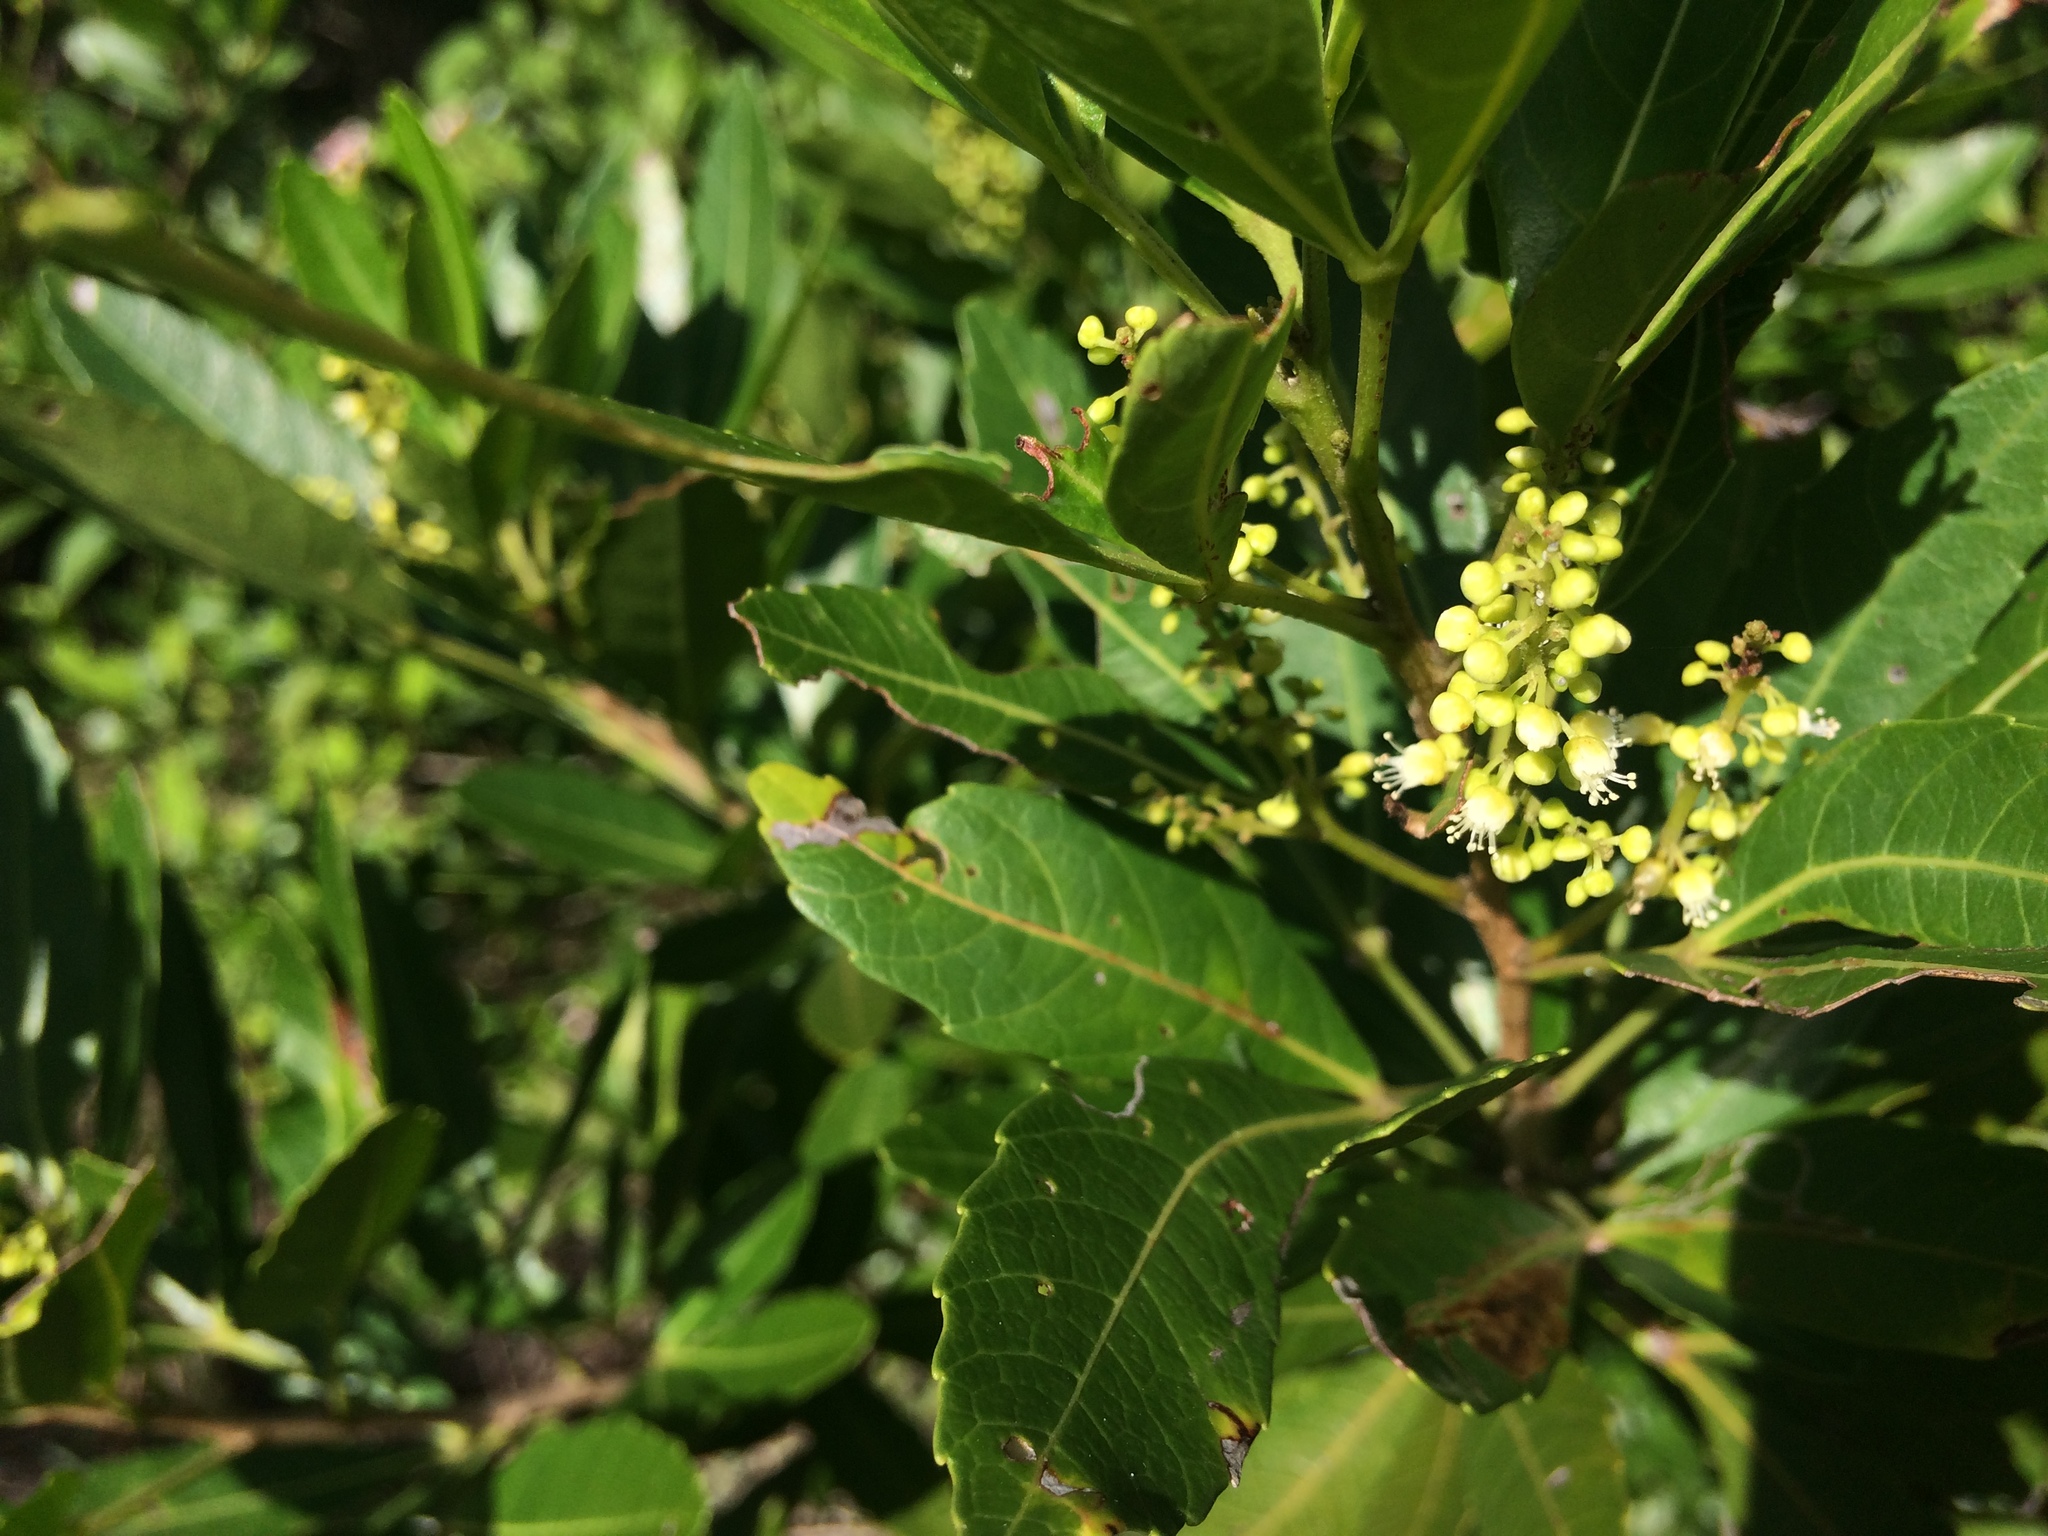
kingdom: Plantae
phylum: Tracheophyta
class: Magnoliopsida
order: Sapindales
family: Sapindaceae
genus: Allophylus
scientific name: Allophylus natalensis
